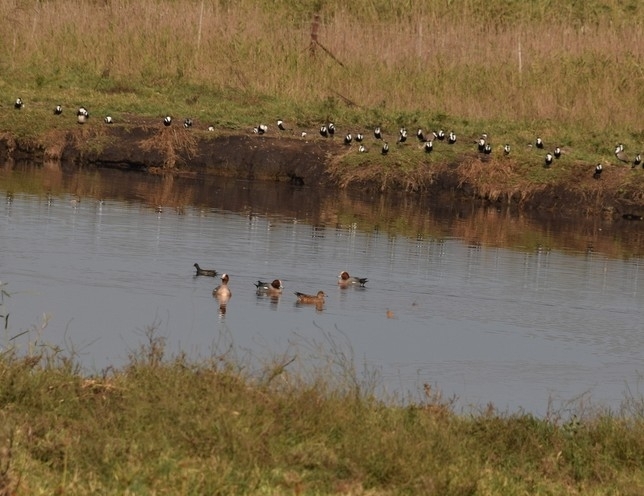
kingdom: Animalia
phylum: Chordata
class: Aves
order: Anseriformes
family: Anatidae
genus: Mareca
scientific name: Mareca penelope
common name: Eurasian wigeon
